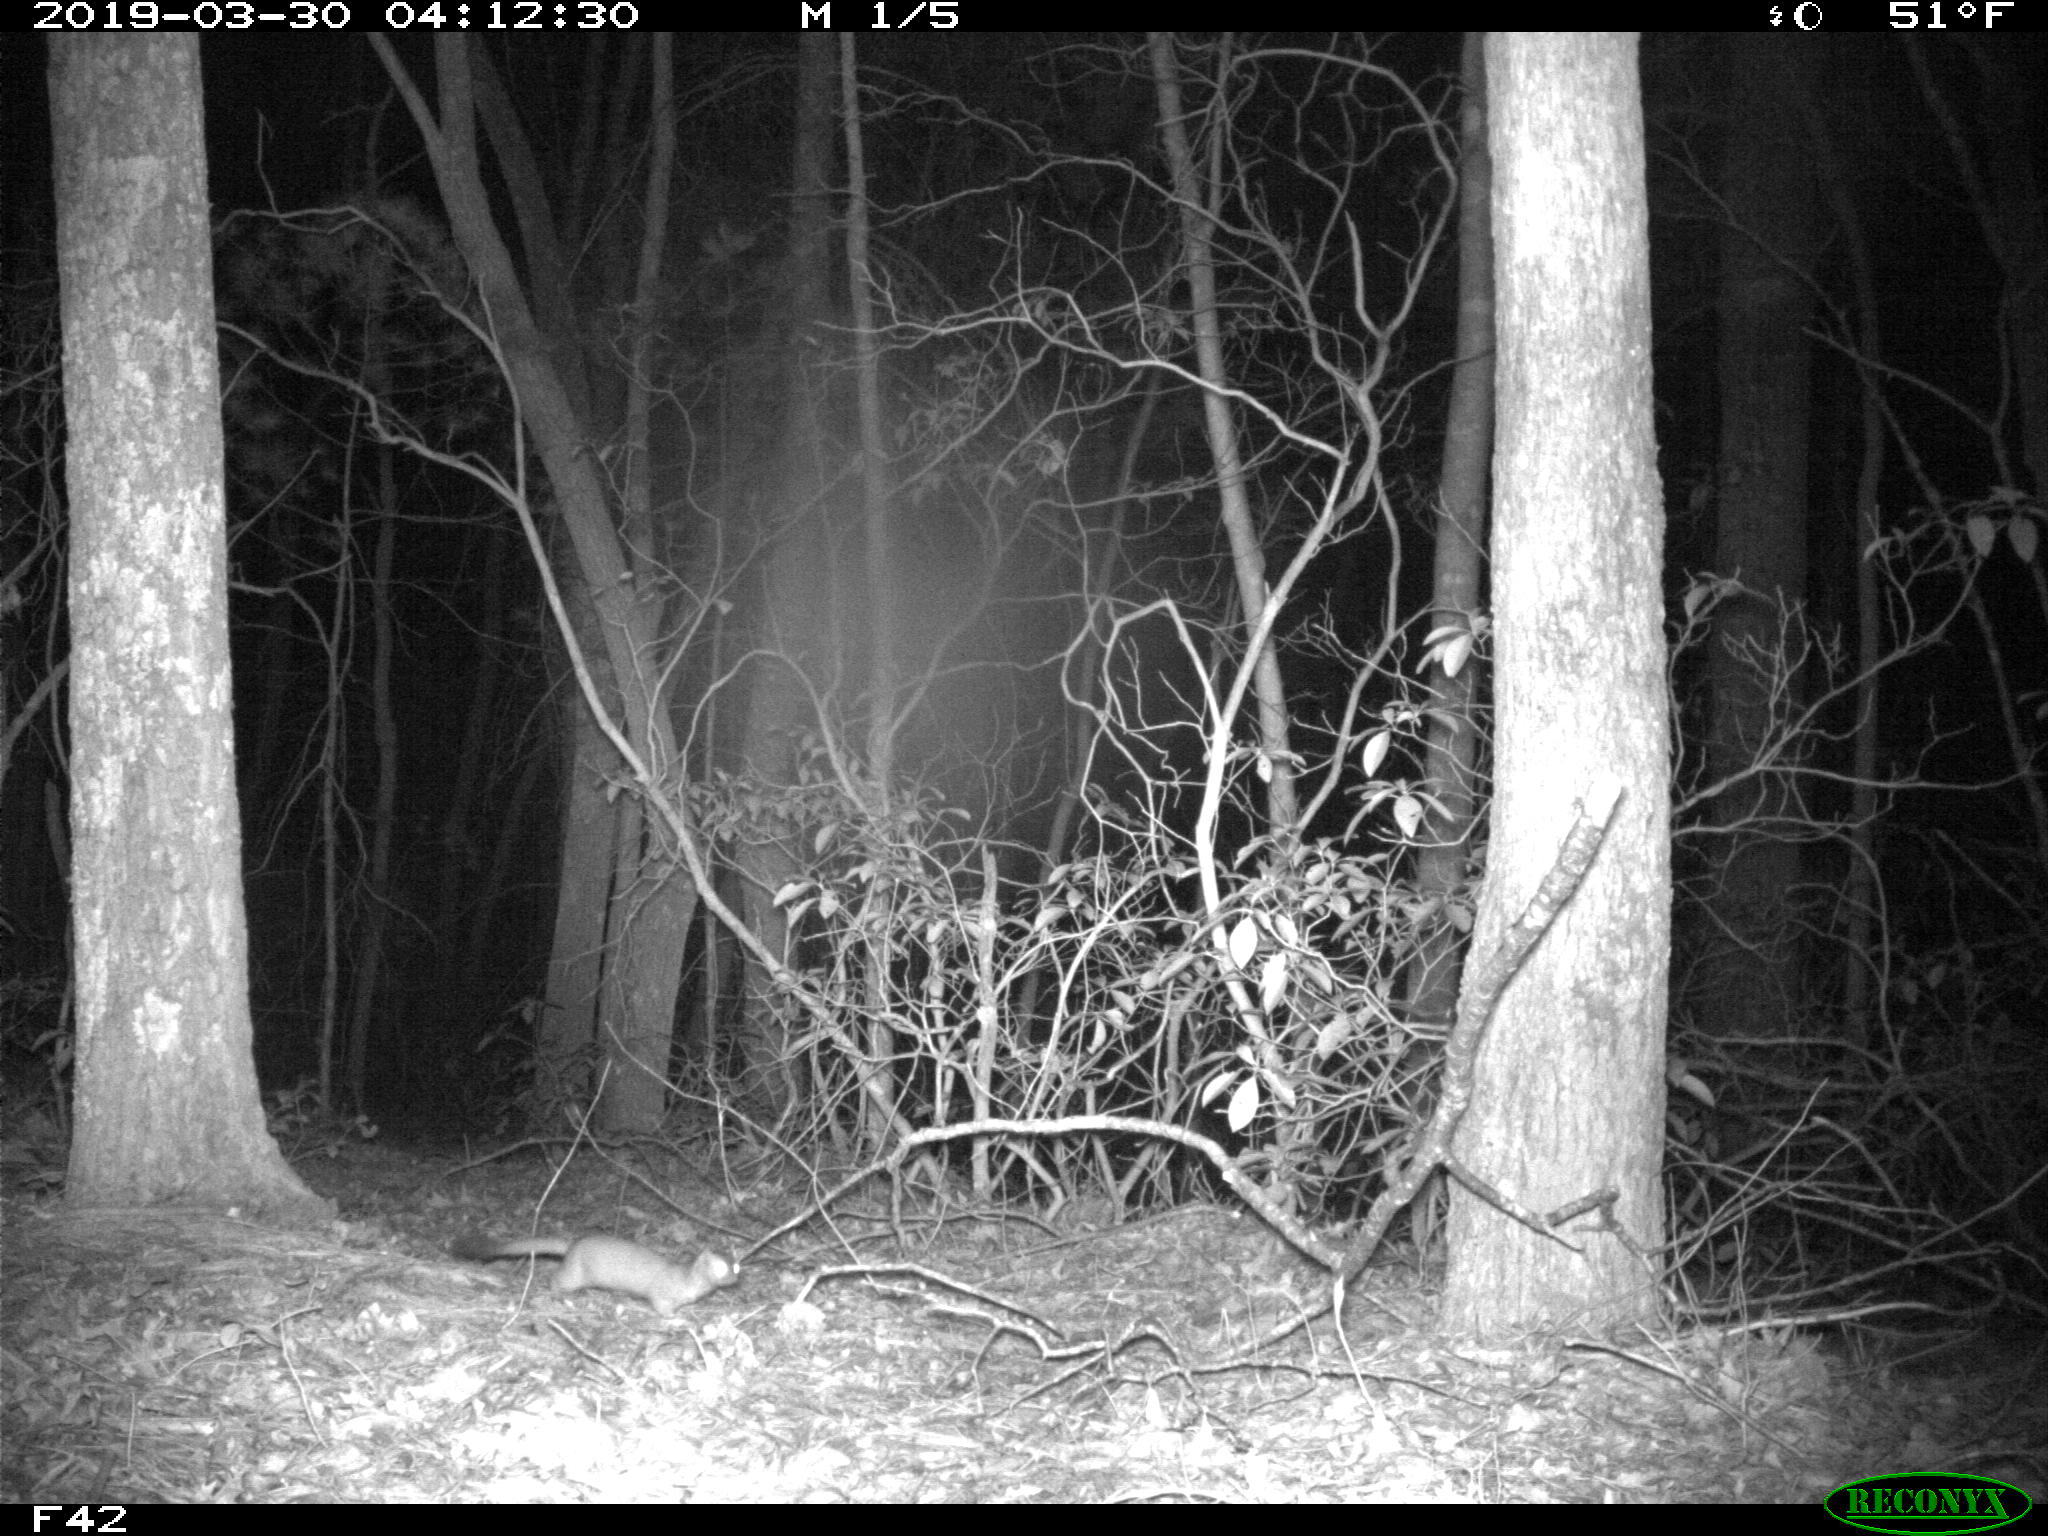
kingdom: Animalia
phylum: Chordata
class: Mammalia
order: Carnivora
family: Mustelidae
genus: Mustela
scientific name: Mustela
